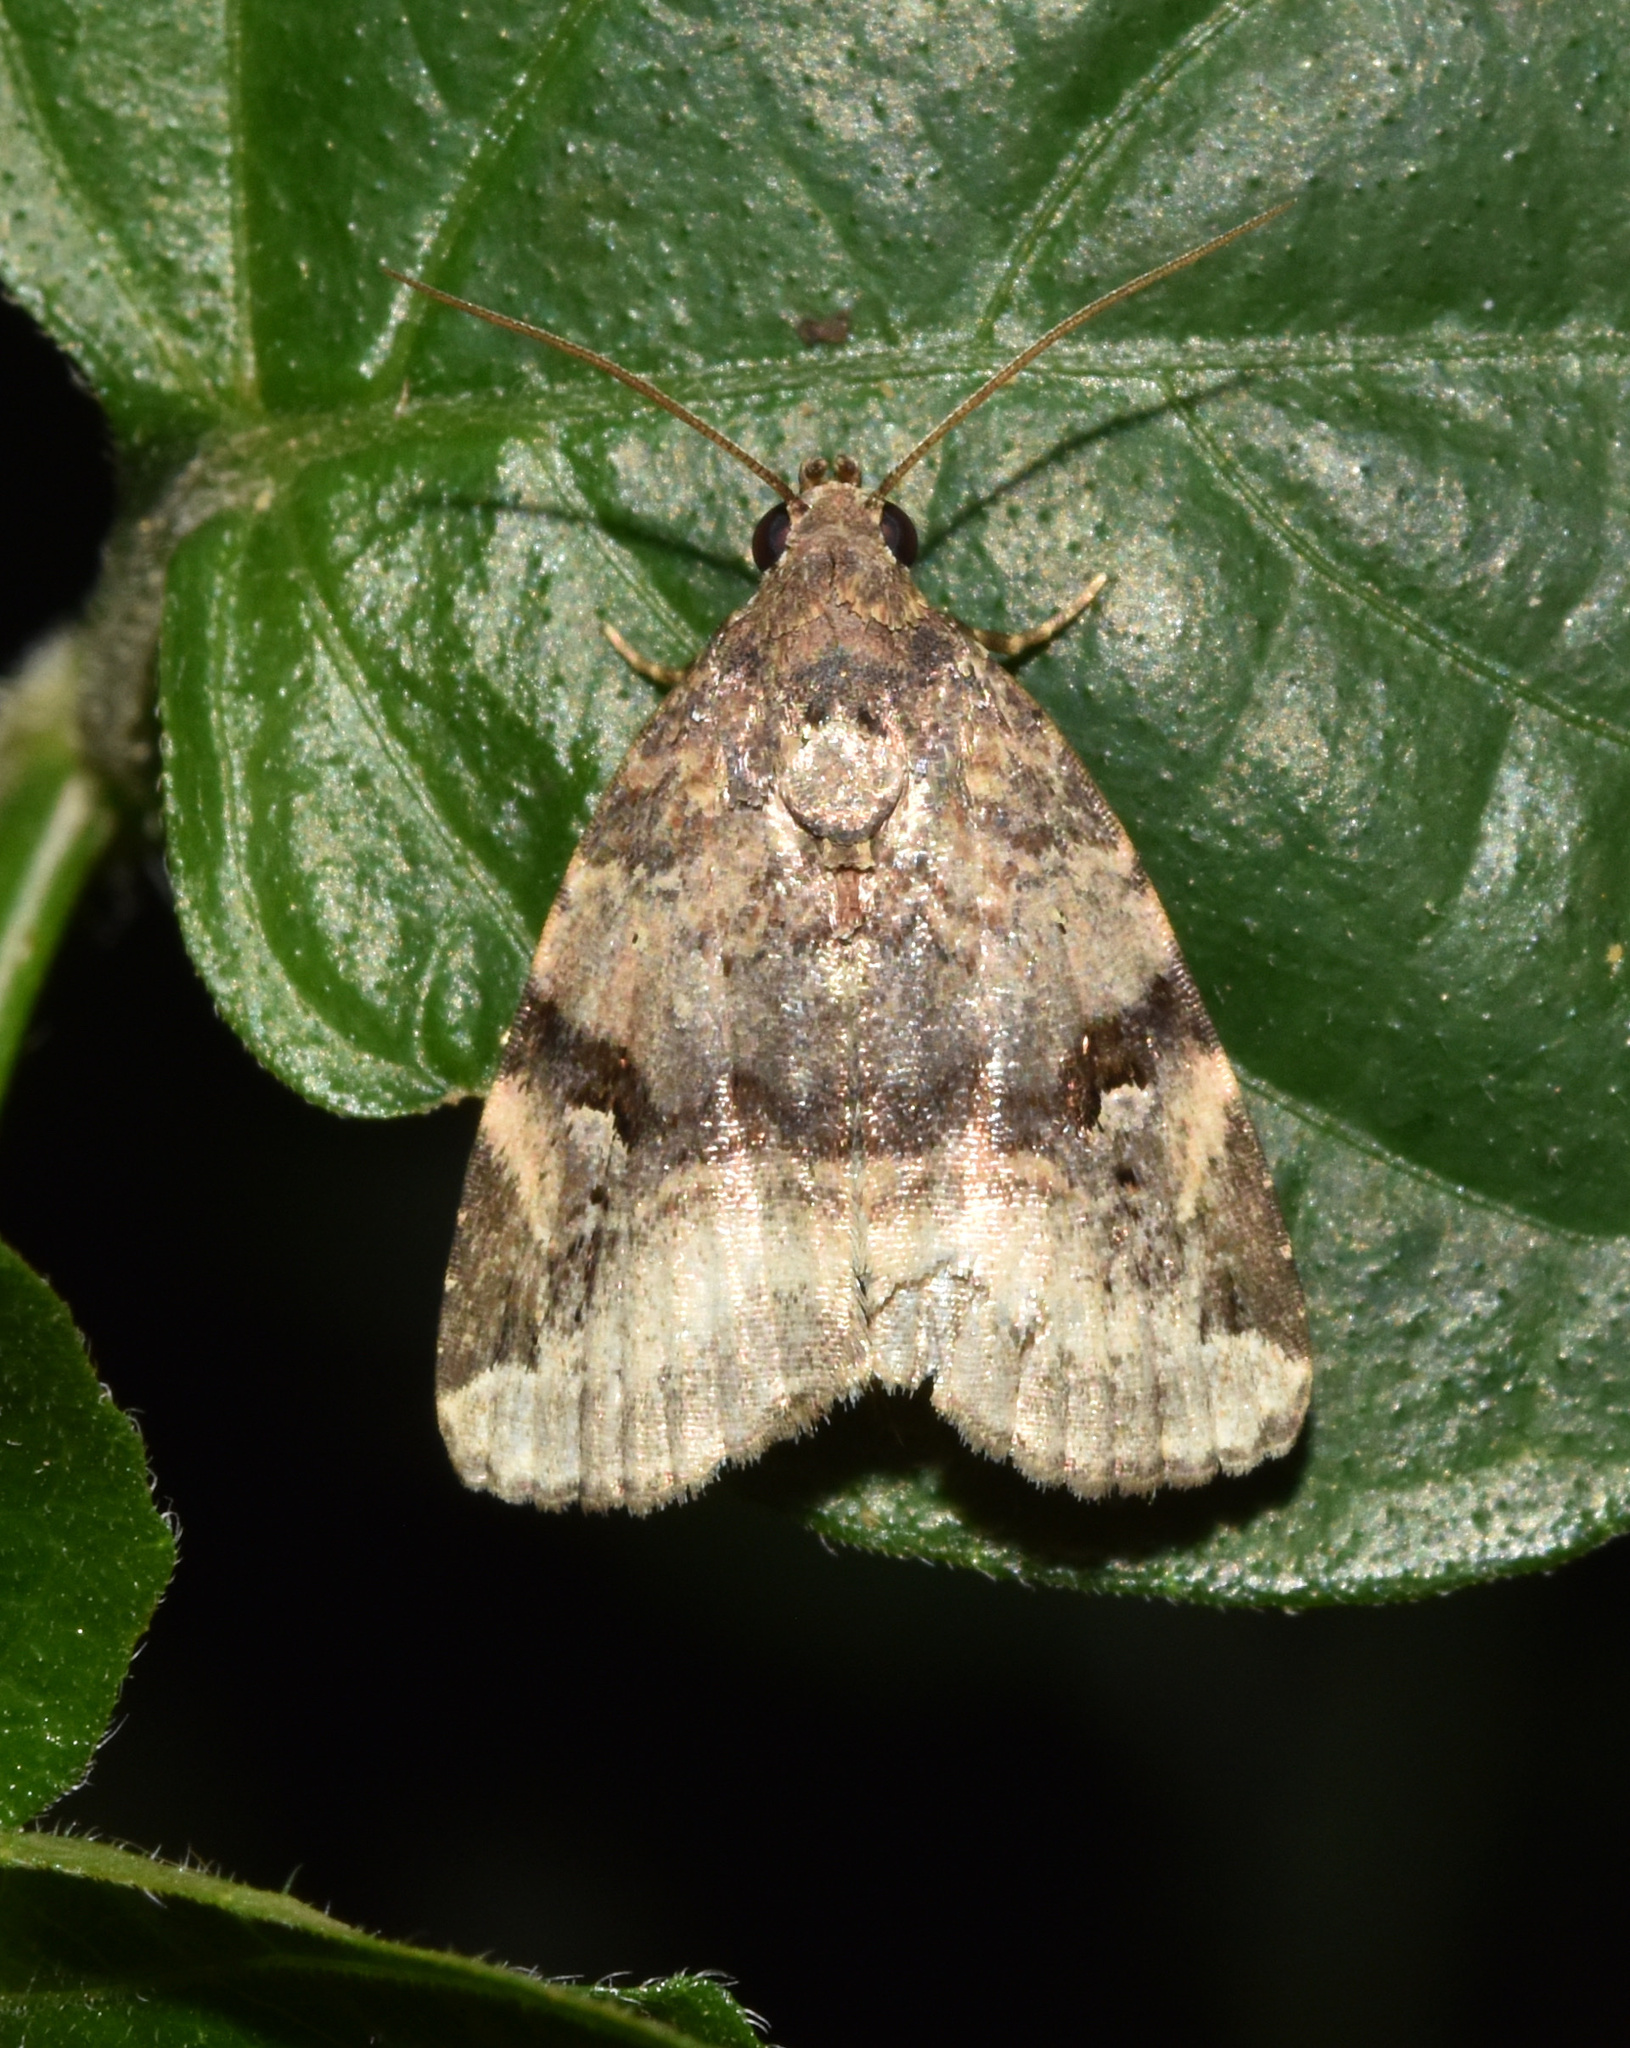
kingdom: Animalia
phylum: Arthropoda
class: Insecta
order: Lepidoptera
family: Noctuidae
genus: Ozarba
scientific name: Ozarba plagifera
